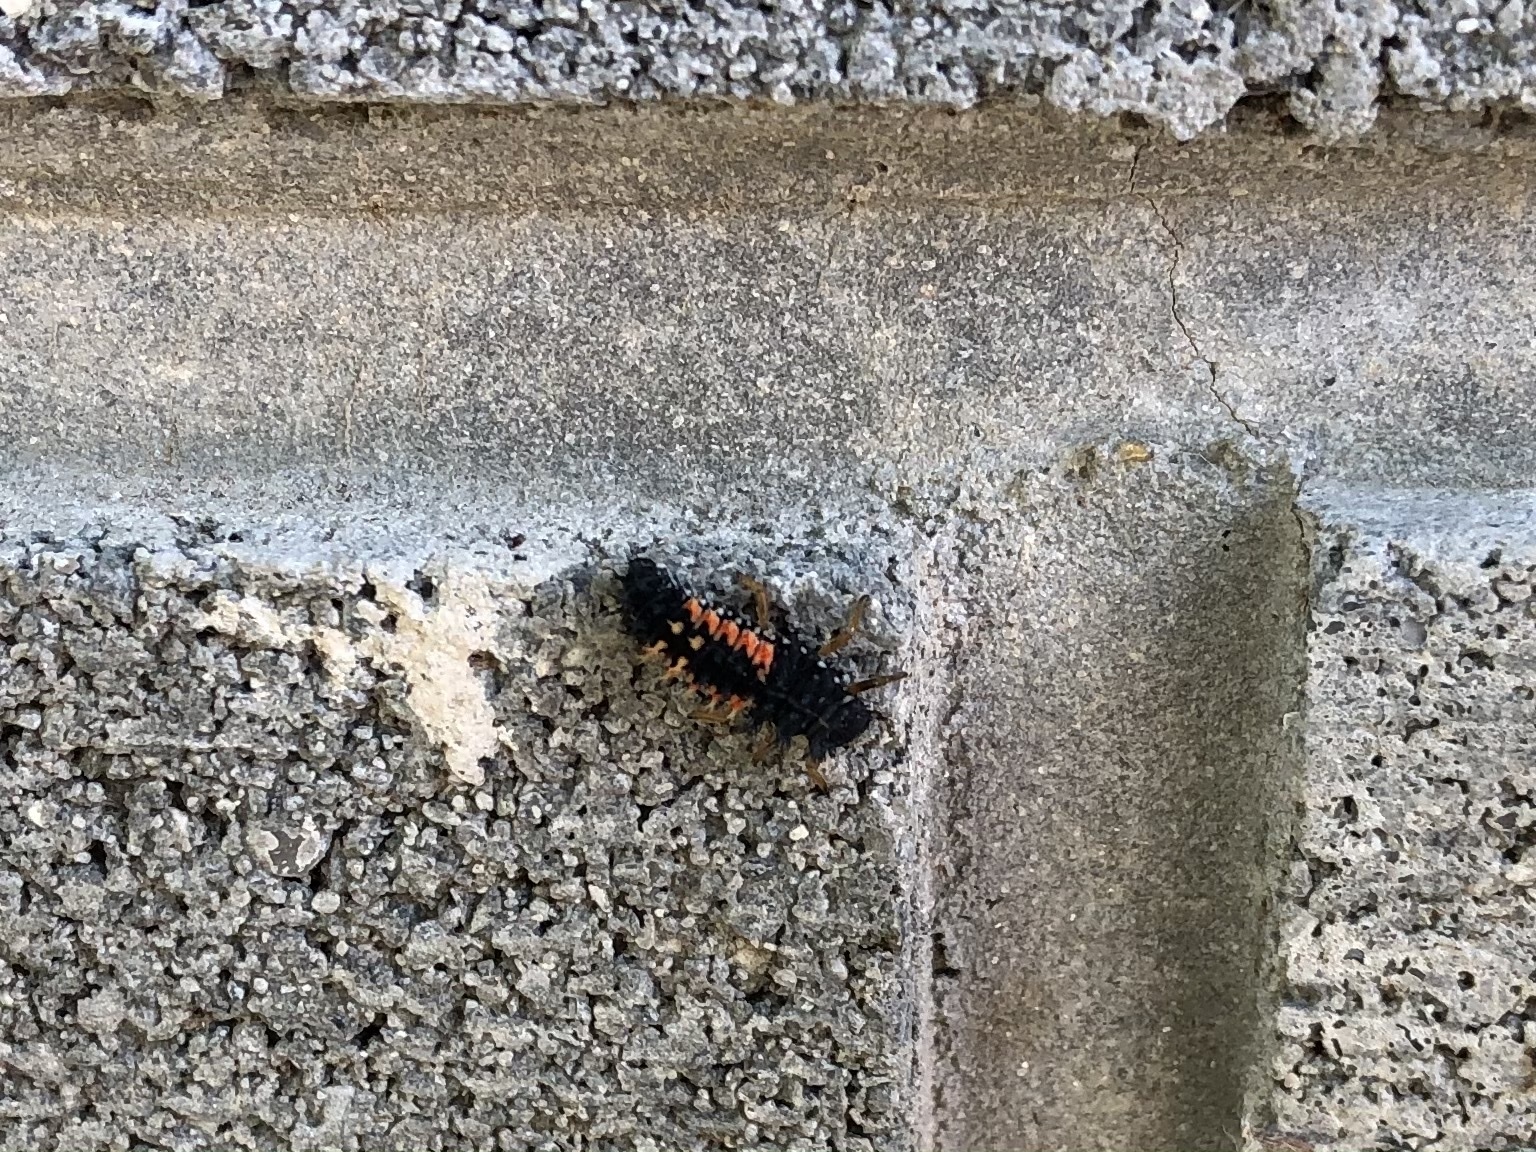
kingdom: Animalia
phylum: Arthropoda
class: Insecta
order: Coleoptera
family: Coccinellidae
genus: Harmonia
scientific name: Harmonia axyridis
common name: Harlequin ladybird
